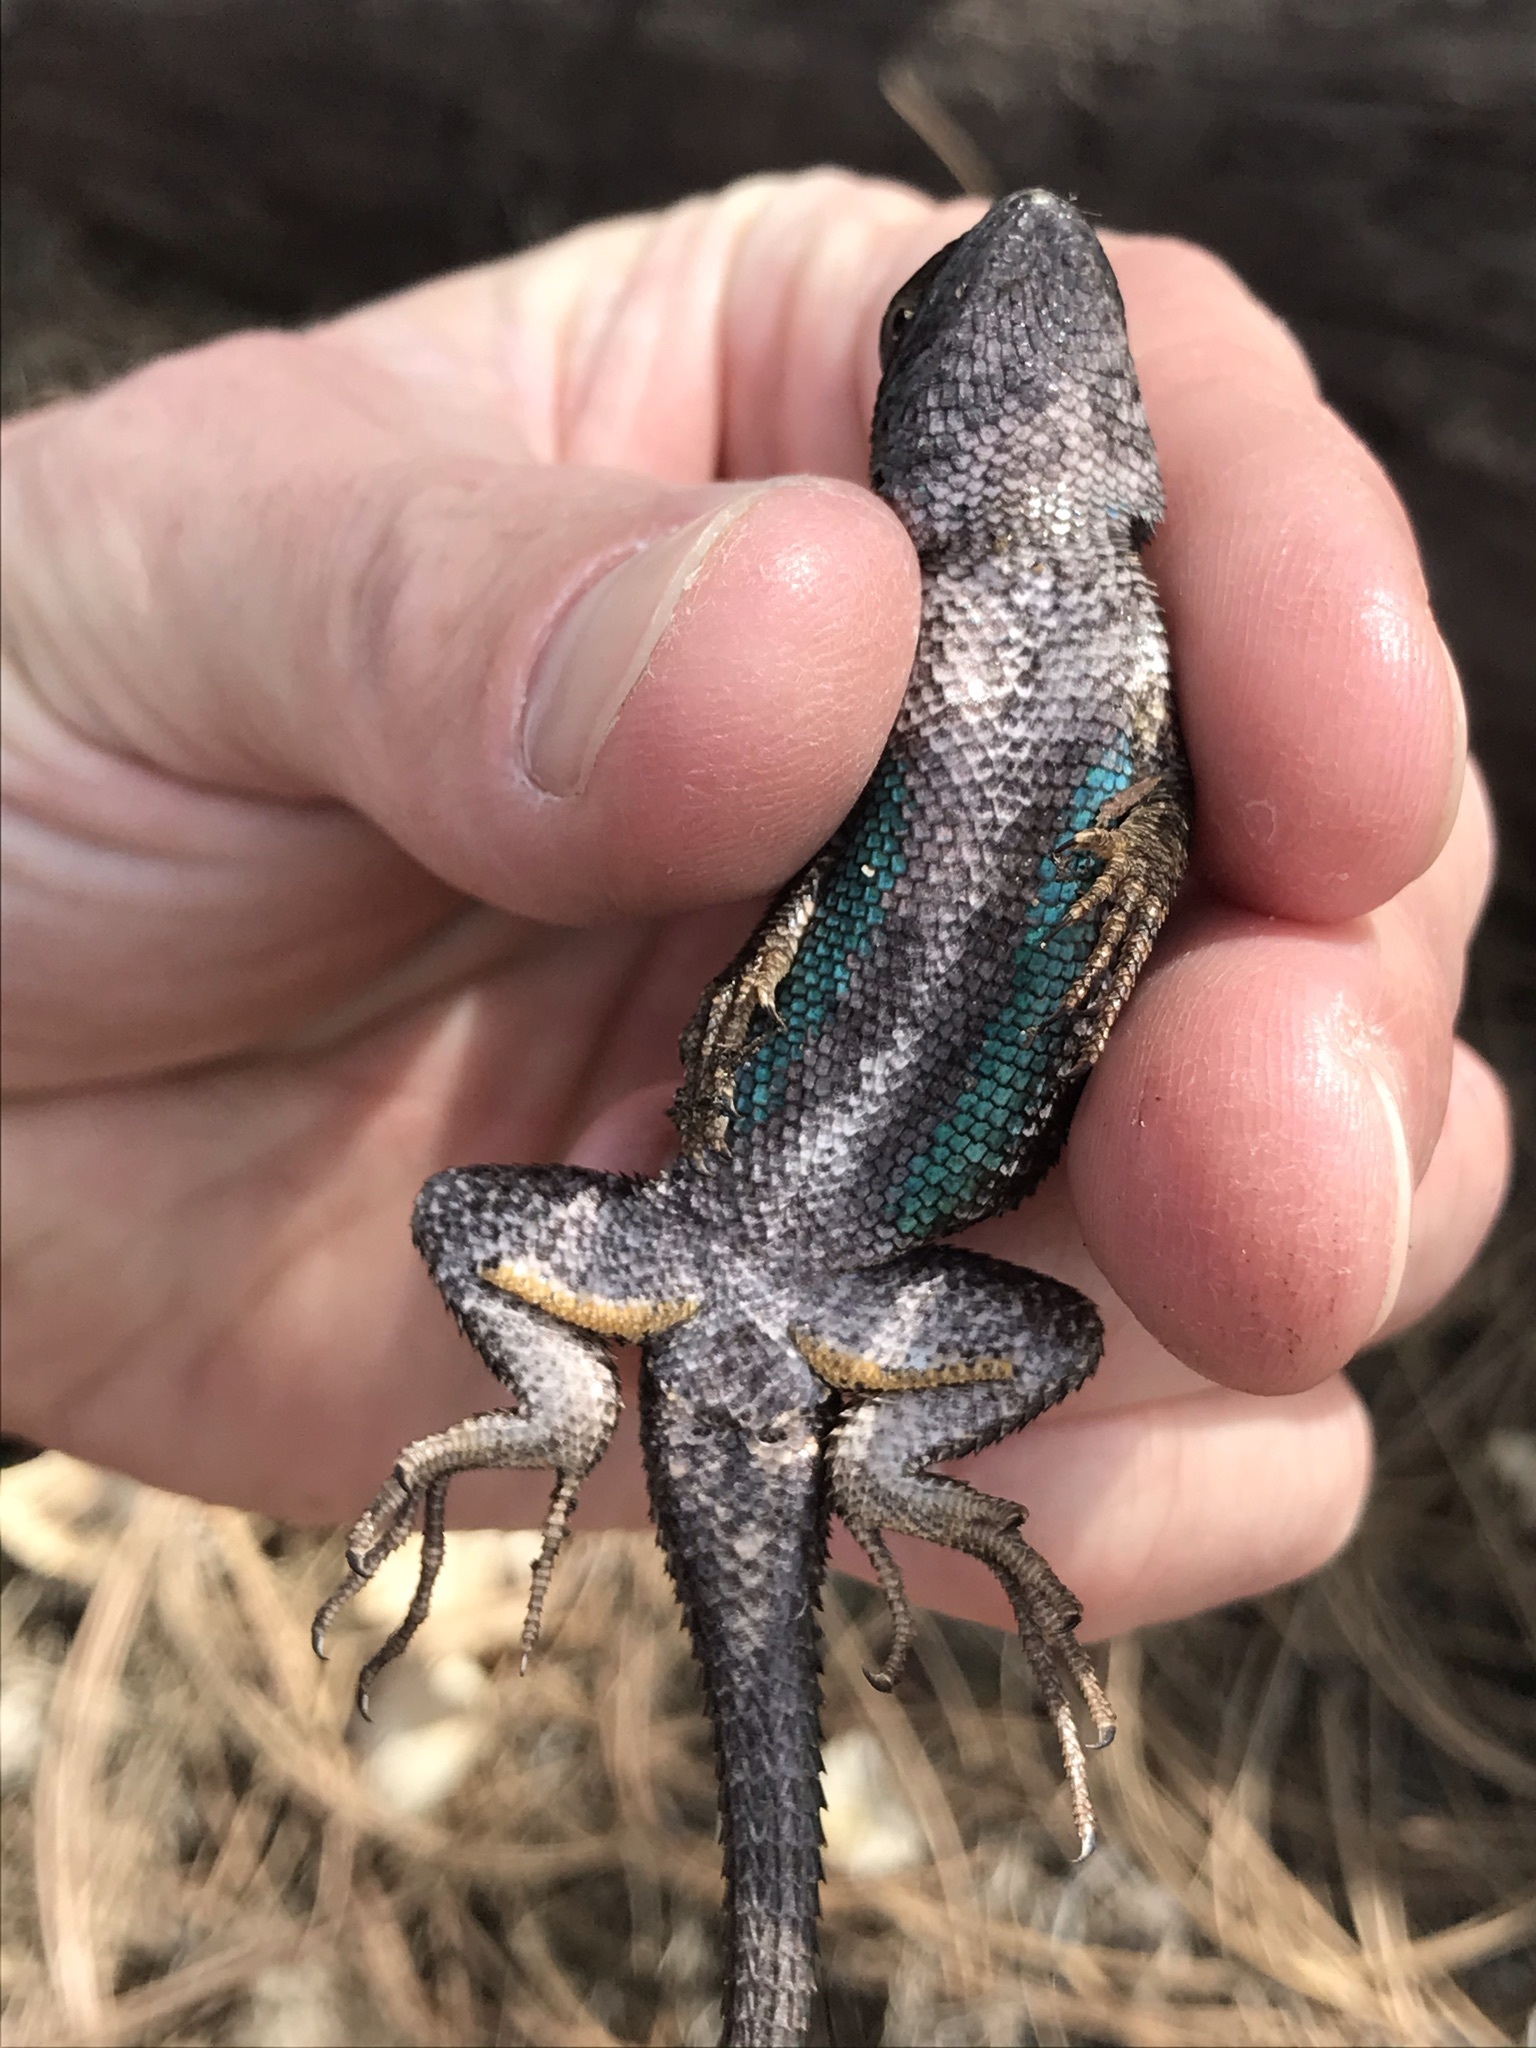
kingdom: Animalia
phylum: Chordata
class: Squamata
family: Phrynosomatidae
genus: Sceloporus
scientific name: Sceloporus occidentalis
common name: Western fence lizard
